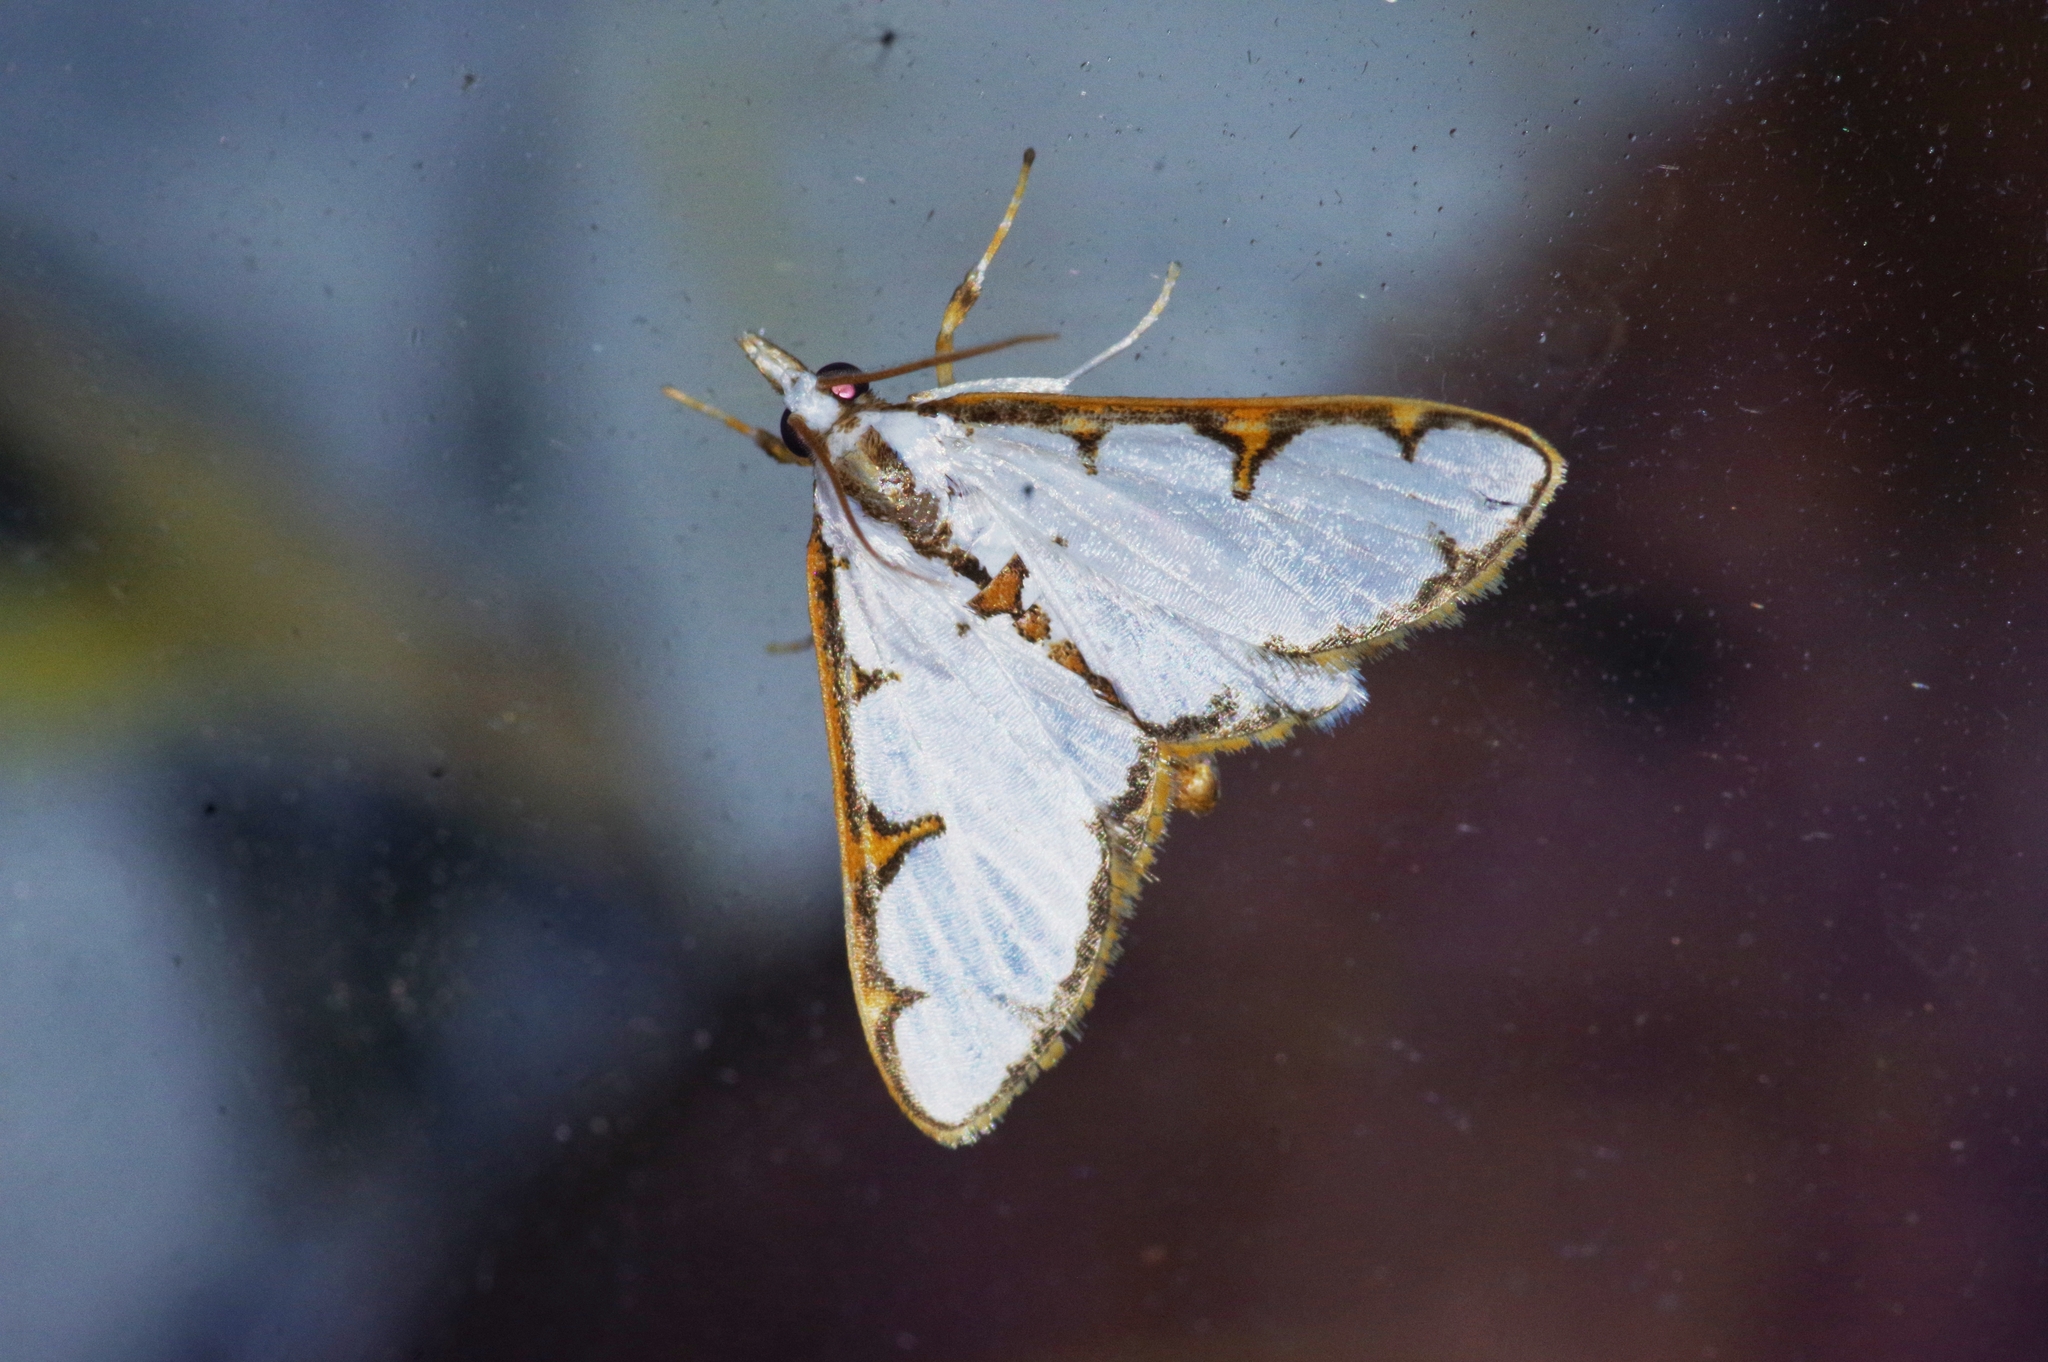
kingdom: Animalia
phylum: Arthropoda
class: Insecta
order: Lepidoptera
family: Crambidae
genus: Cirrhochrista
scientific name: Cirrhochrista brizoalis
